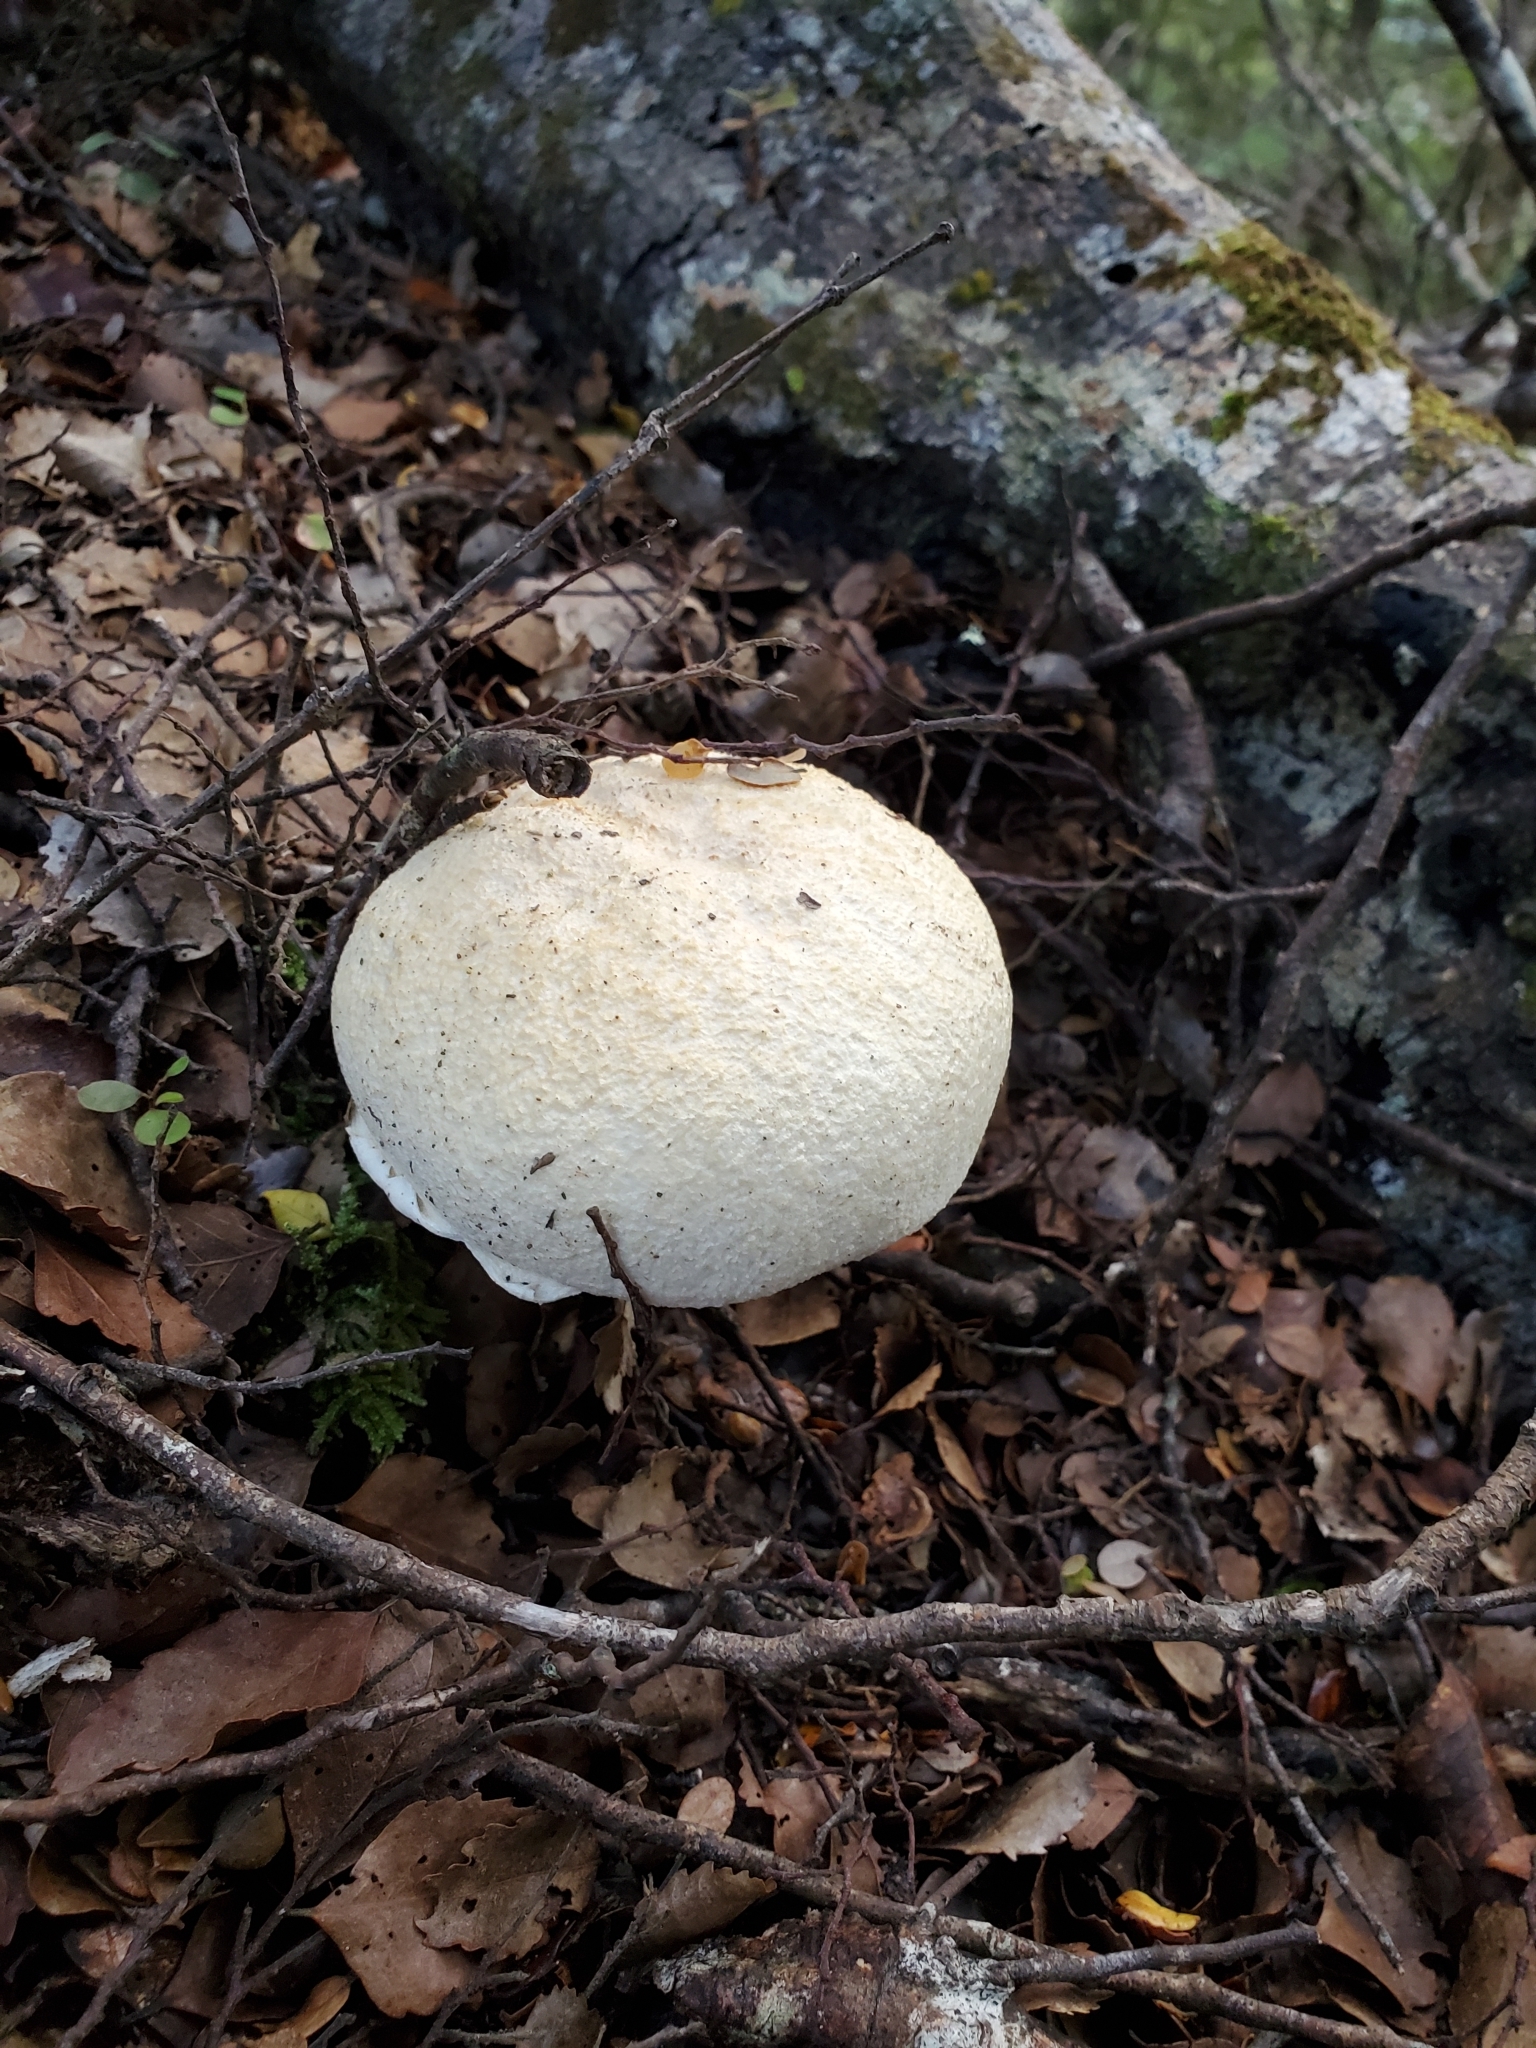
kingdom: Fungi
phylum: Basidiomycota
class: Agaricomycetes
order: Boletales
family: Boletaceae
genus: Fistulinella
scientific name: Fistulinella nivea
